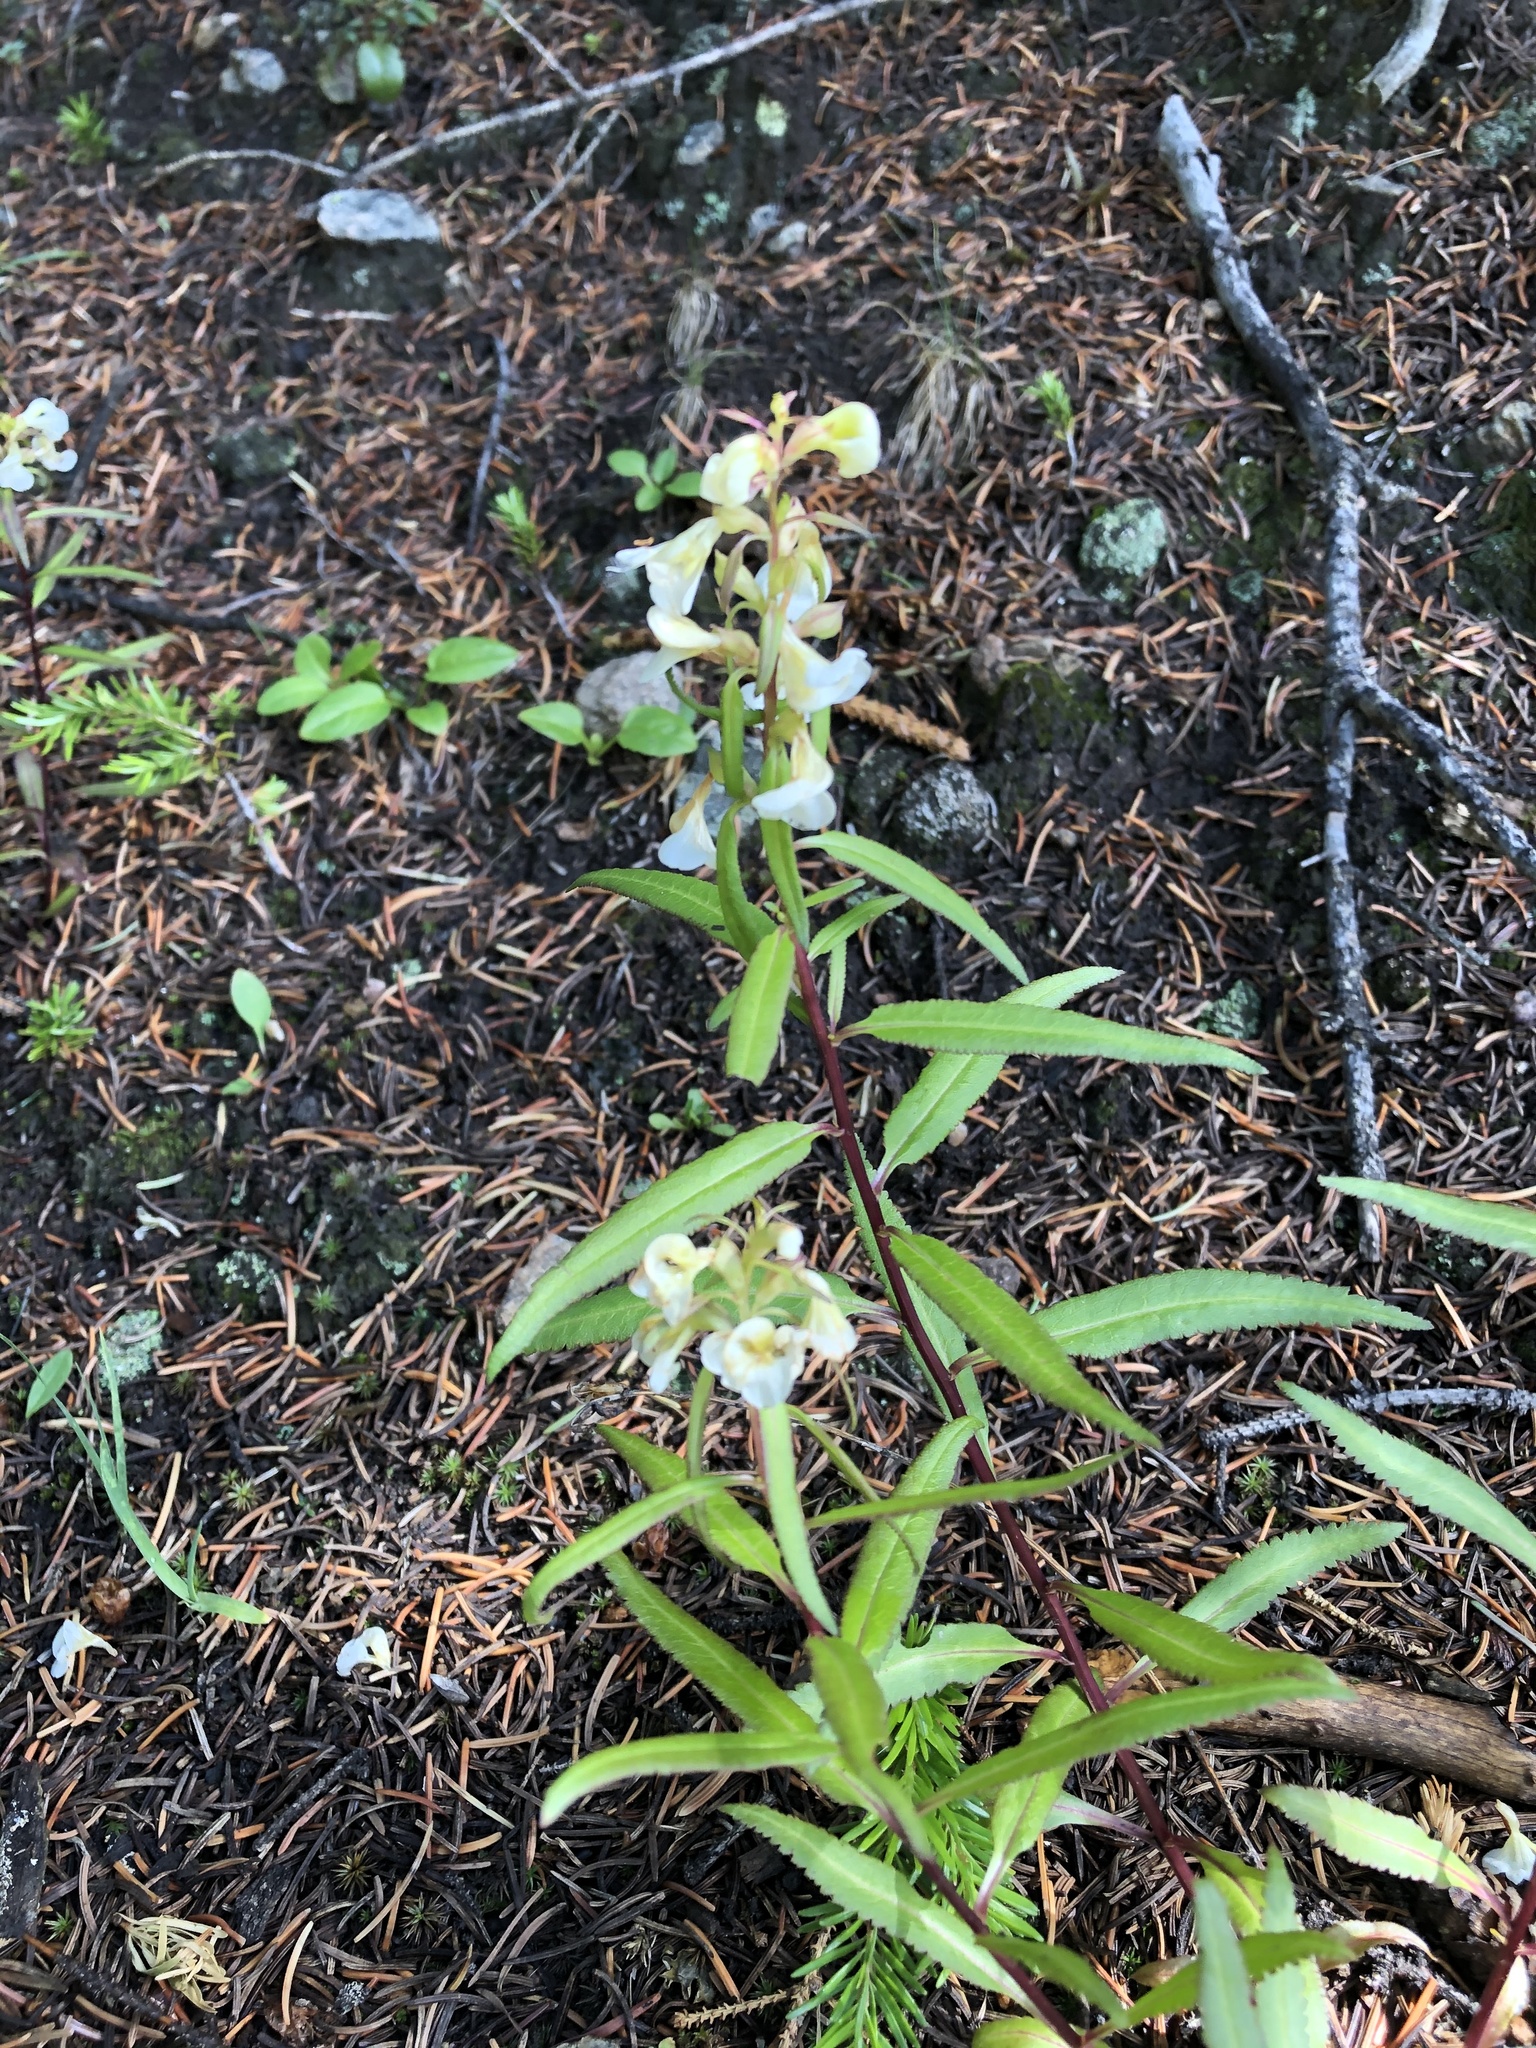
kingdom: Plantae
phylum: Tracheophyta
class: Magnoliopsida
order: Lamiales
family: Orobanchaceae
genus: Pedicularis
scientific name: Pedicularis racemosa
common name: Leafy lousewort
